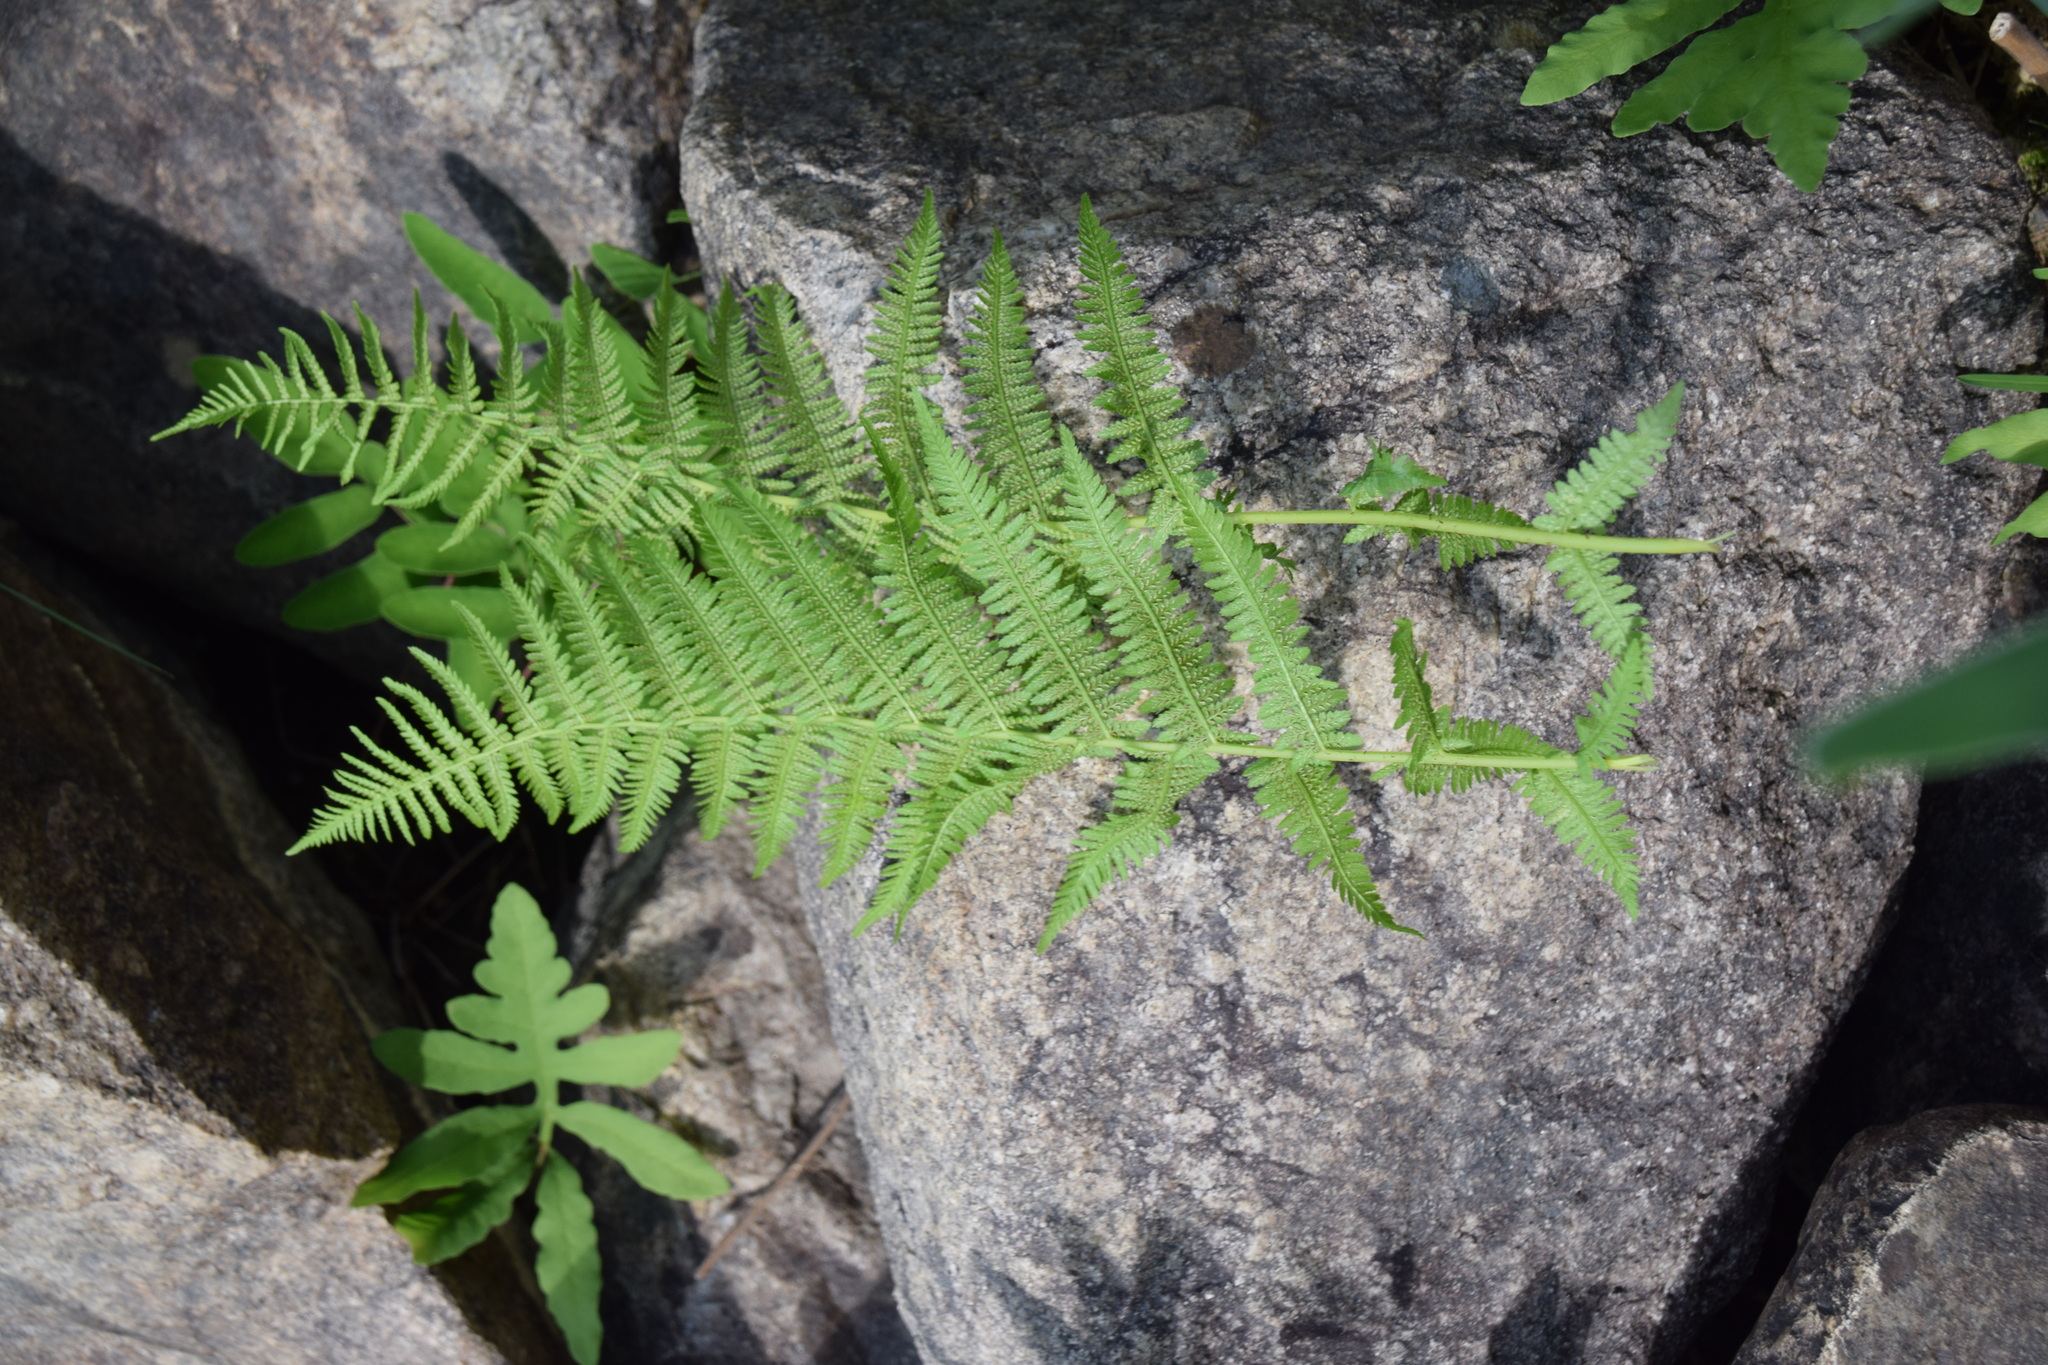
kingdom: Plantae
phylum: Tracheophyta
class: Polypodiopsida
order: Polypodiales
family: Athyriaceae
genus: Athyrium
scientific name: Athyrium angustum
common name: Northern lady fern
